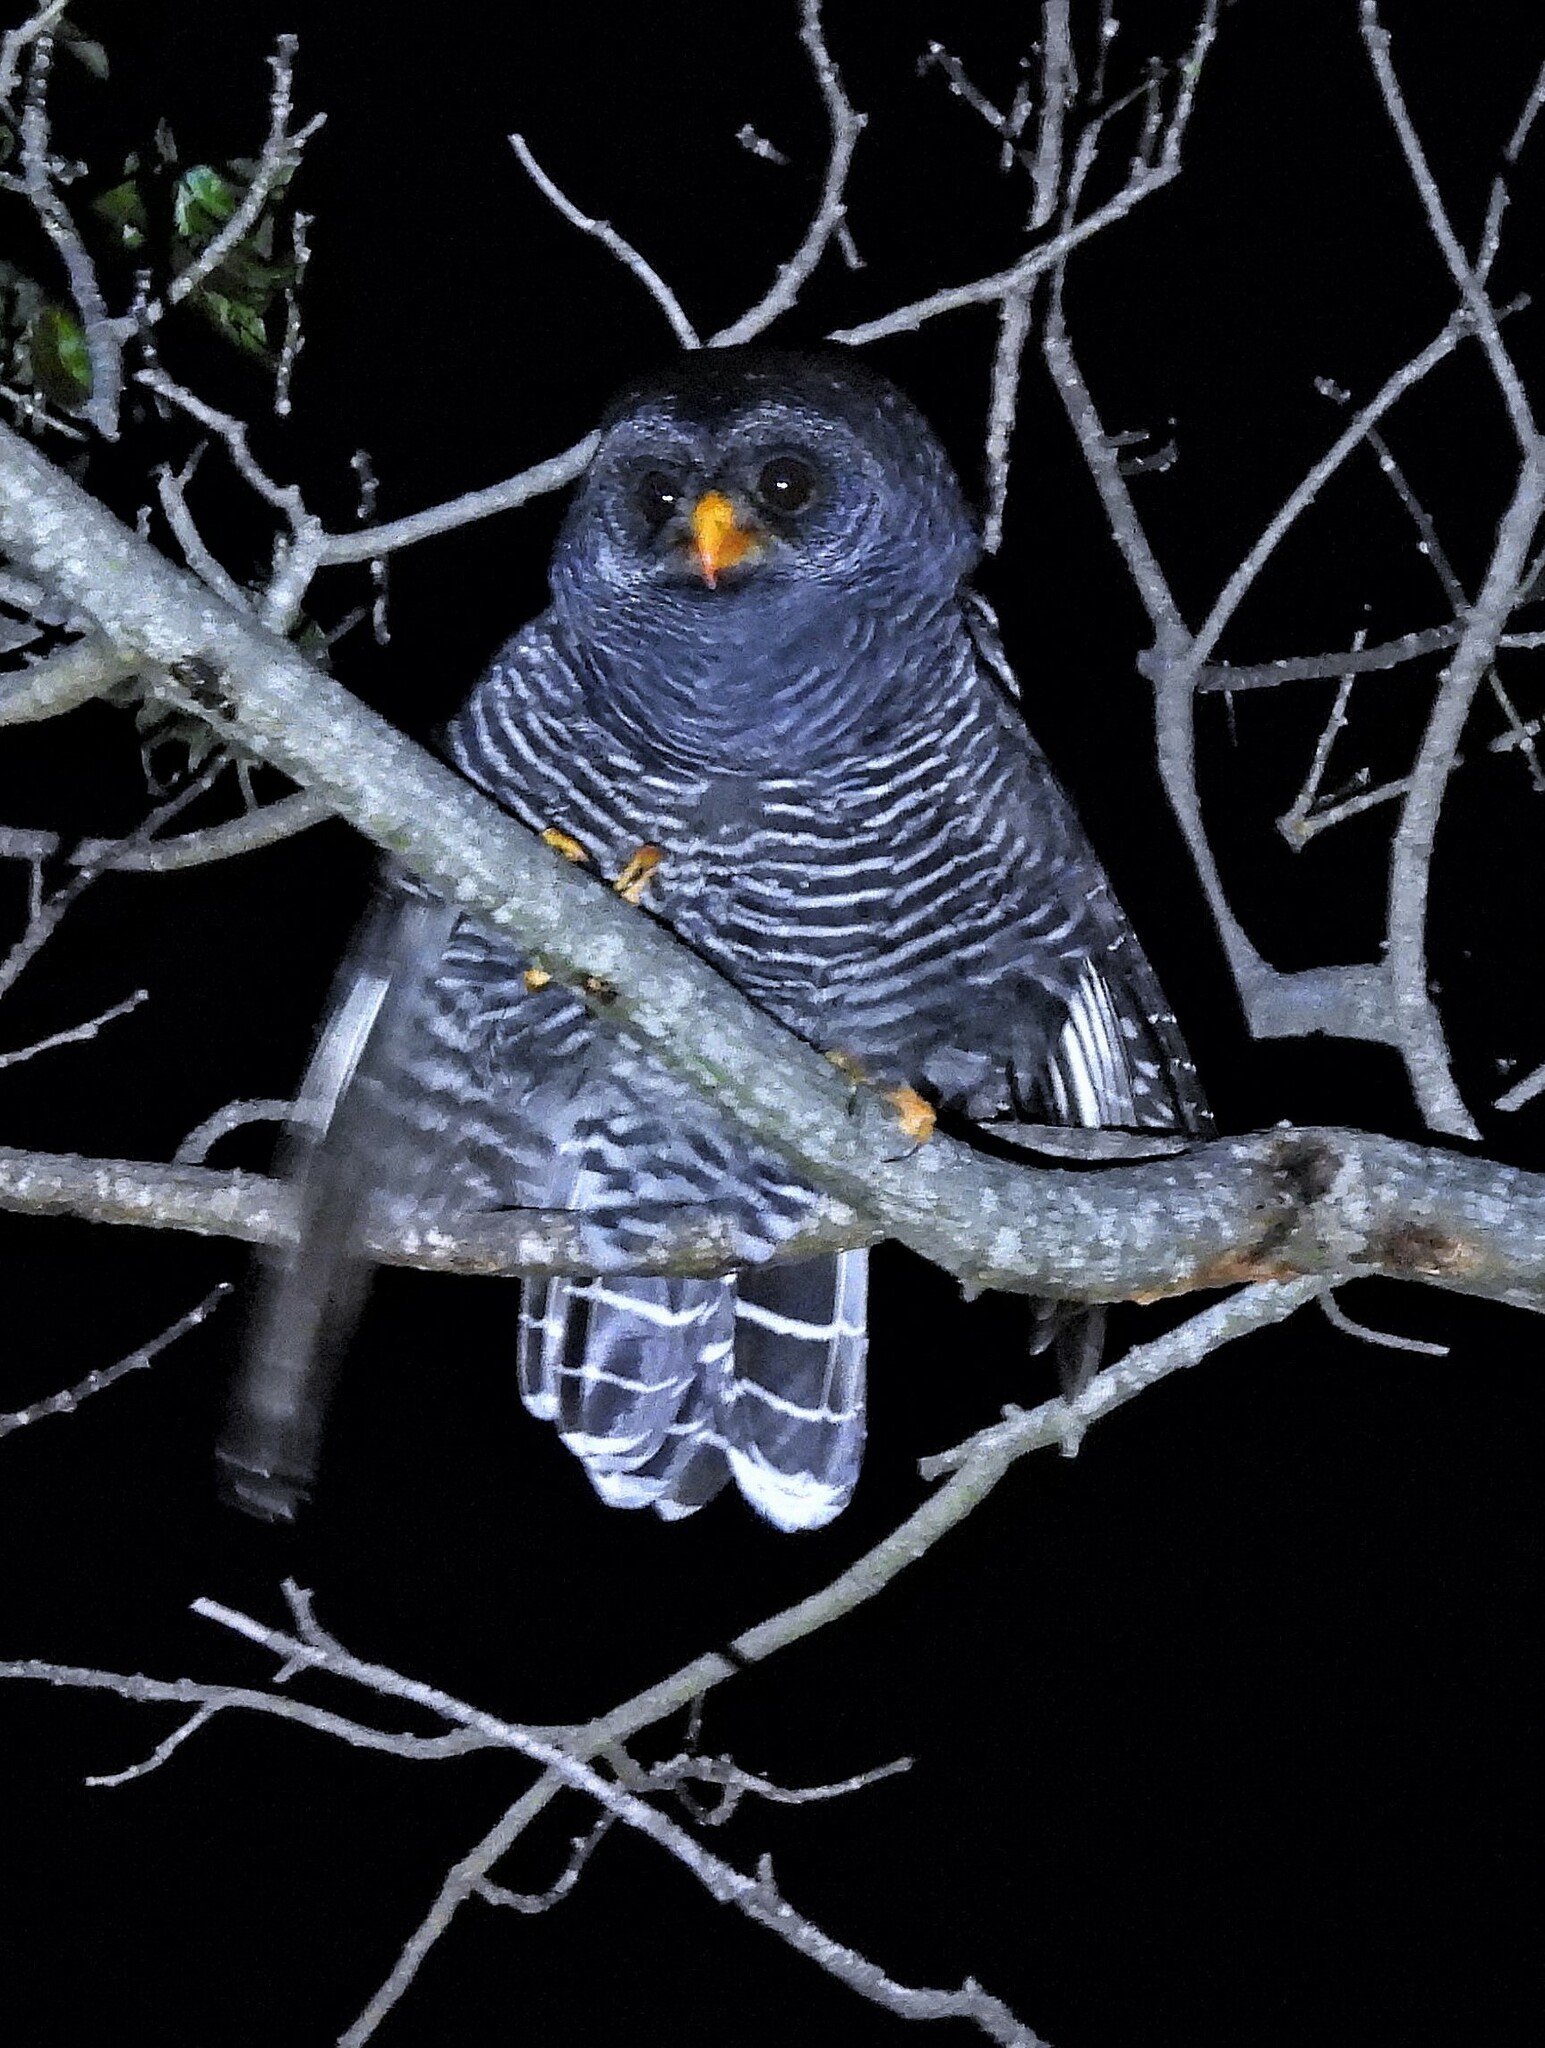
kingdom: Animalia
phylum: Chordata
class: Aves
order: Strigiformes
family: Strigidae
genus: Strix
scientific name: Strix huhula
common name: Black-banded owl
